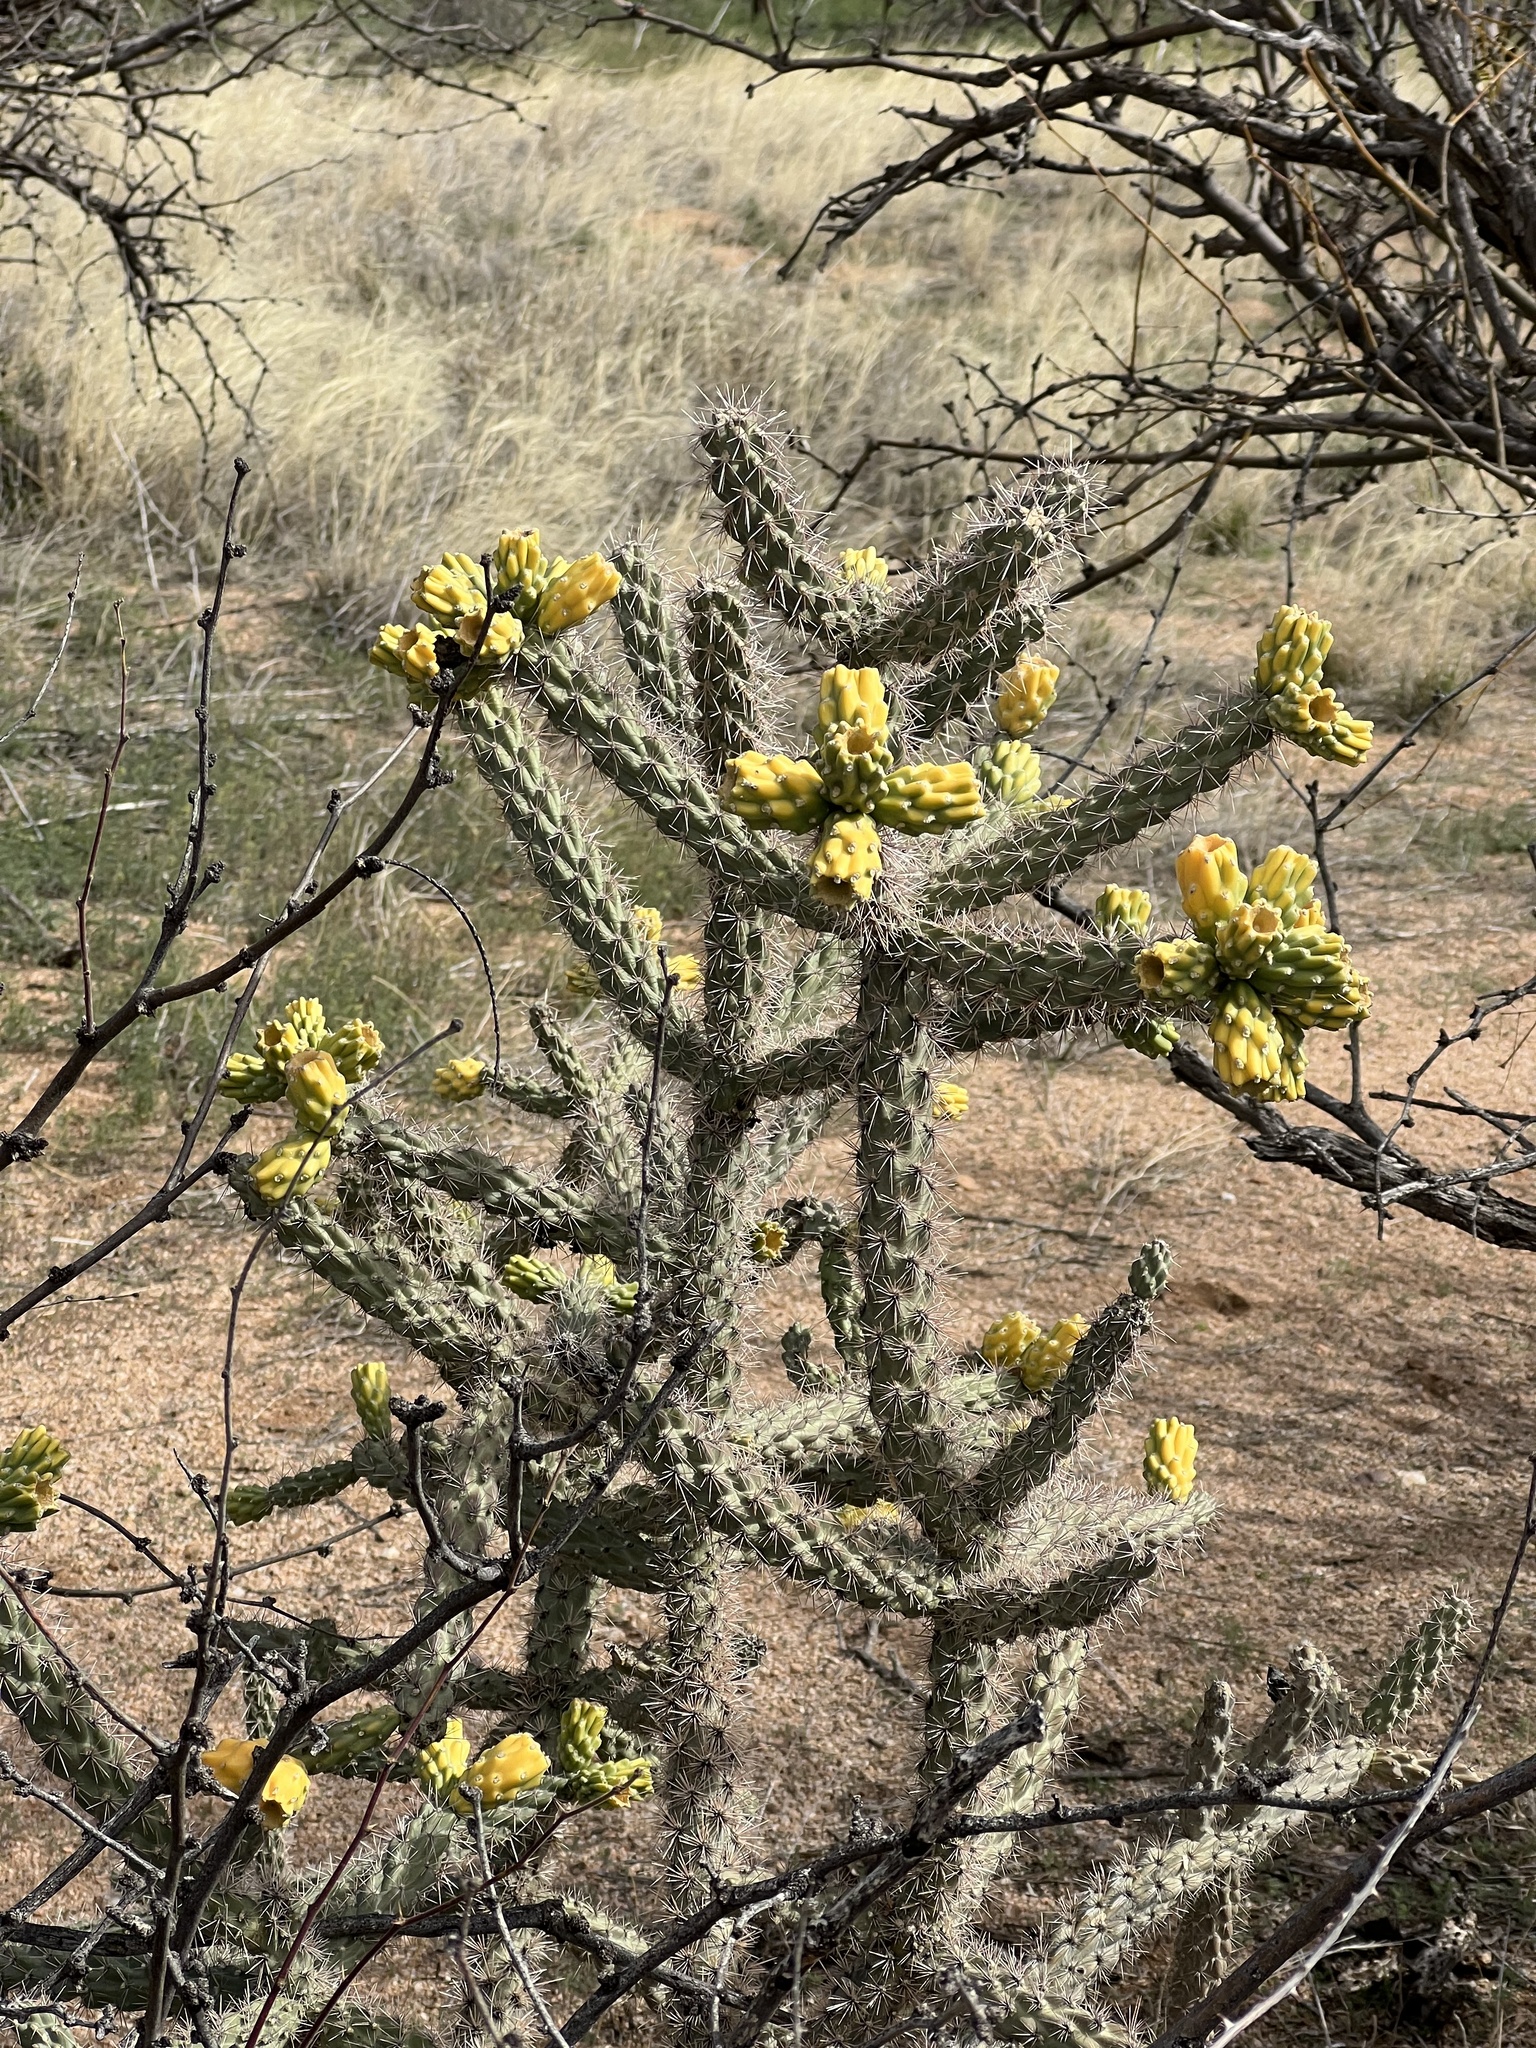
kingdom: Plantae
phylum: Tracheophyta
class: Magnoliopsida
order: Caryophyllales
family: Cactaceae
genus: Cylindropuntia
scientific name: Cylindropuntia imbricata
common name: Candelabrum cactus
